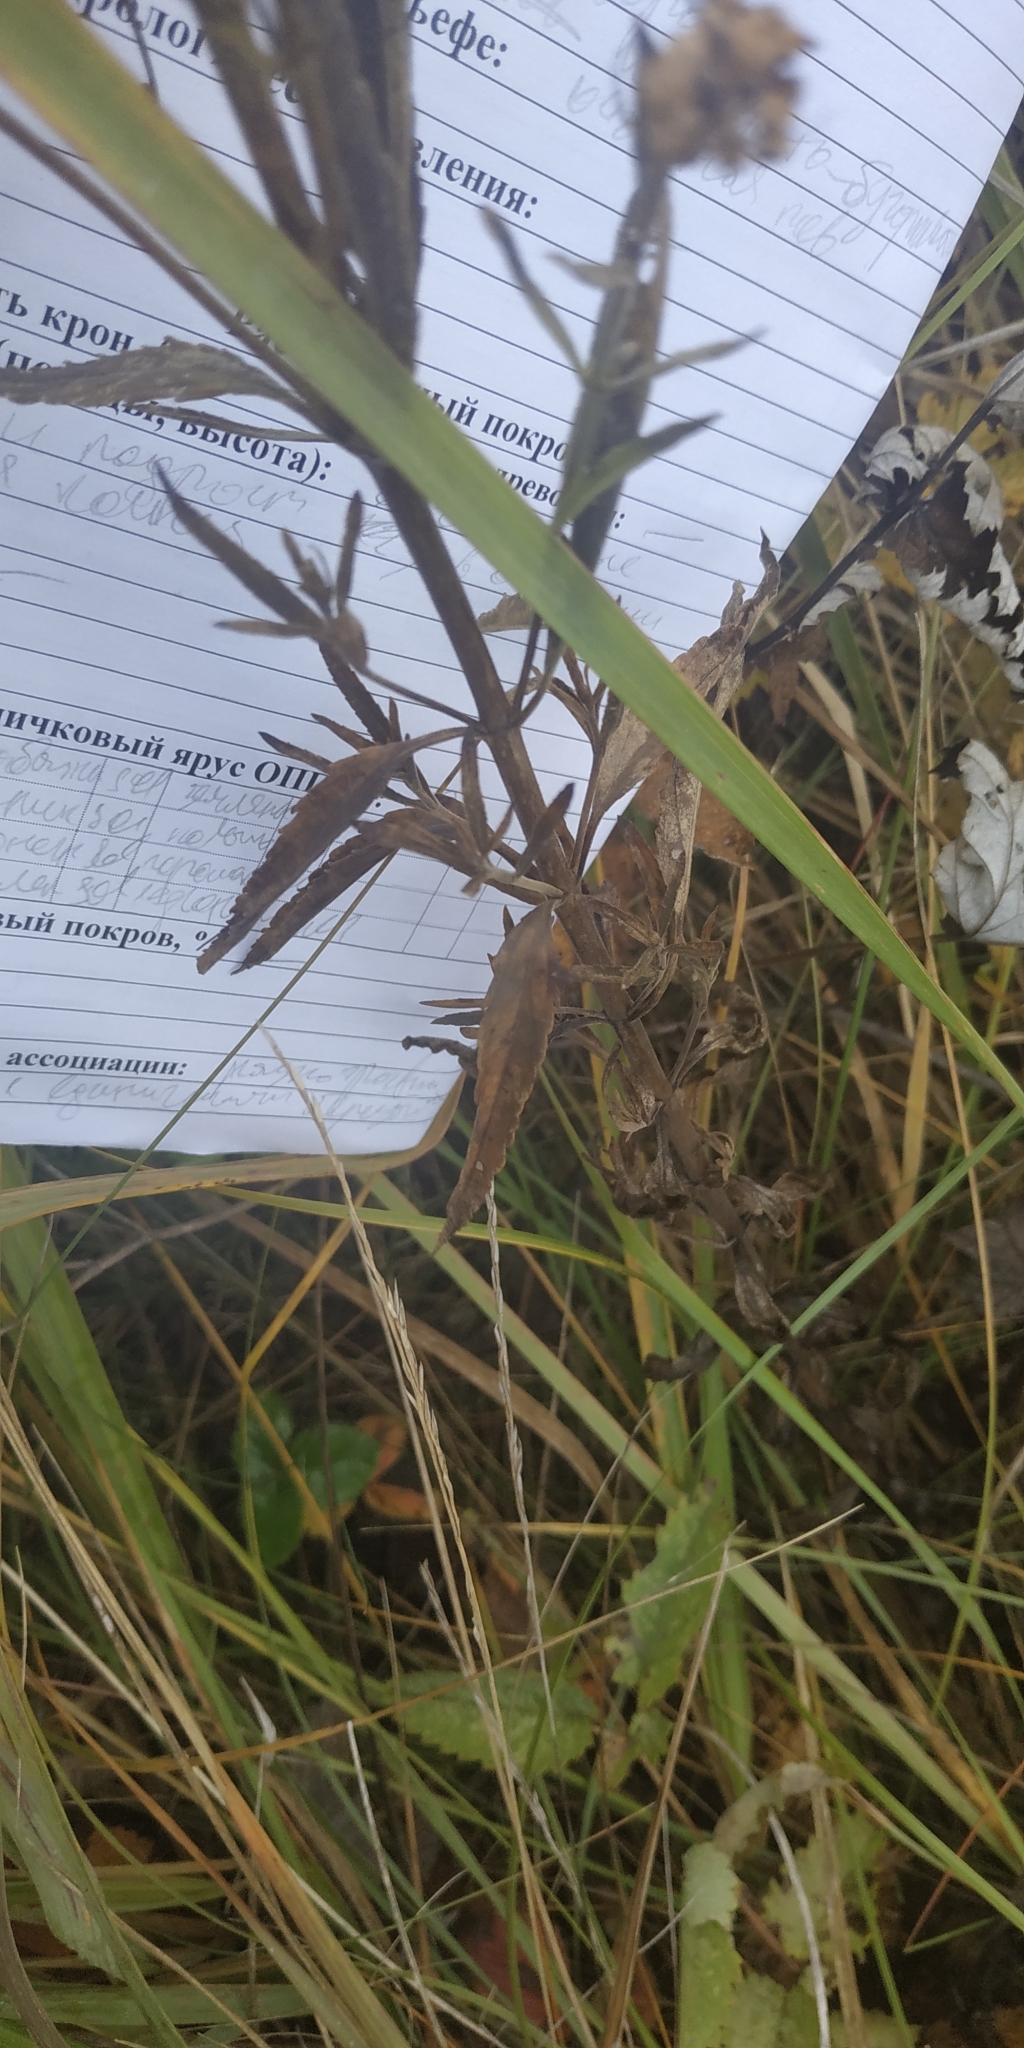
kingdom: Plantae
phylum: Tracheophyta
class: Magnoliopsida
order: Lamiales
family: Plantaginaceae
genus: Veronica
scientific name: Veronica spuria
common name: Bastard speedwell
